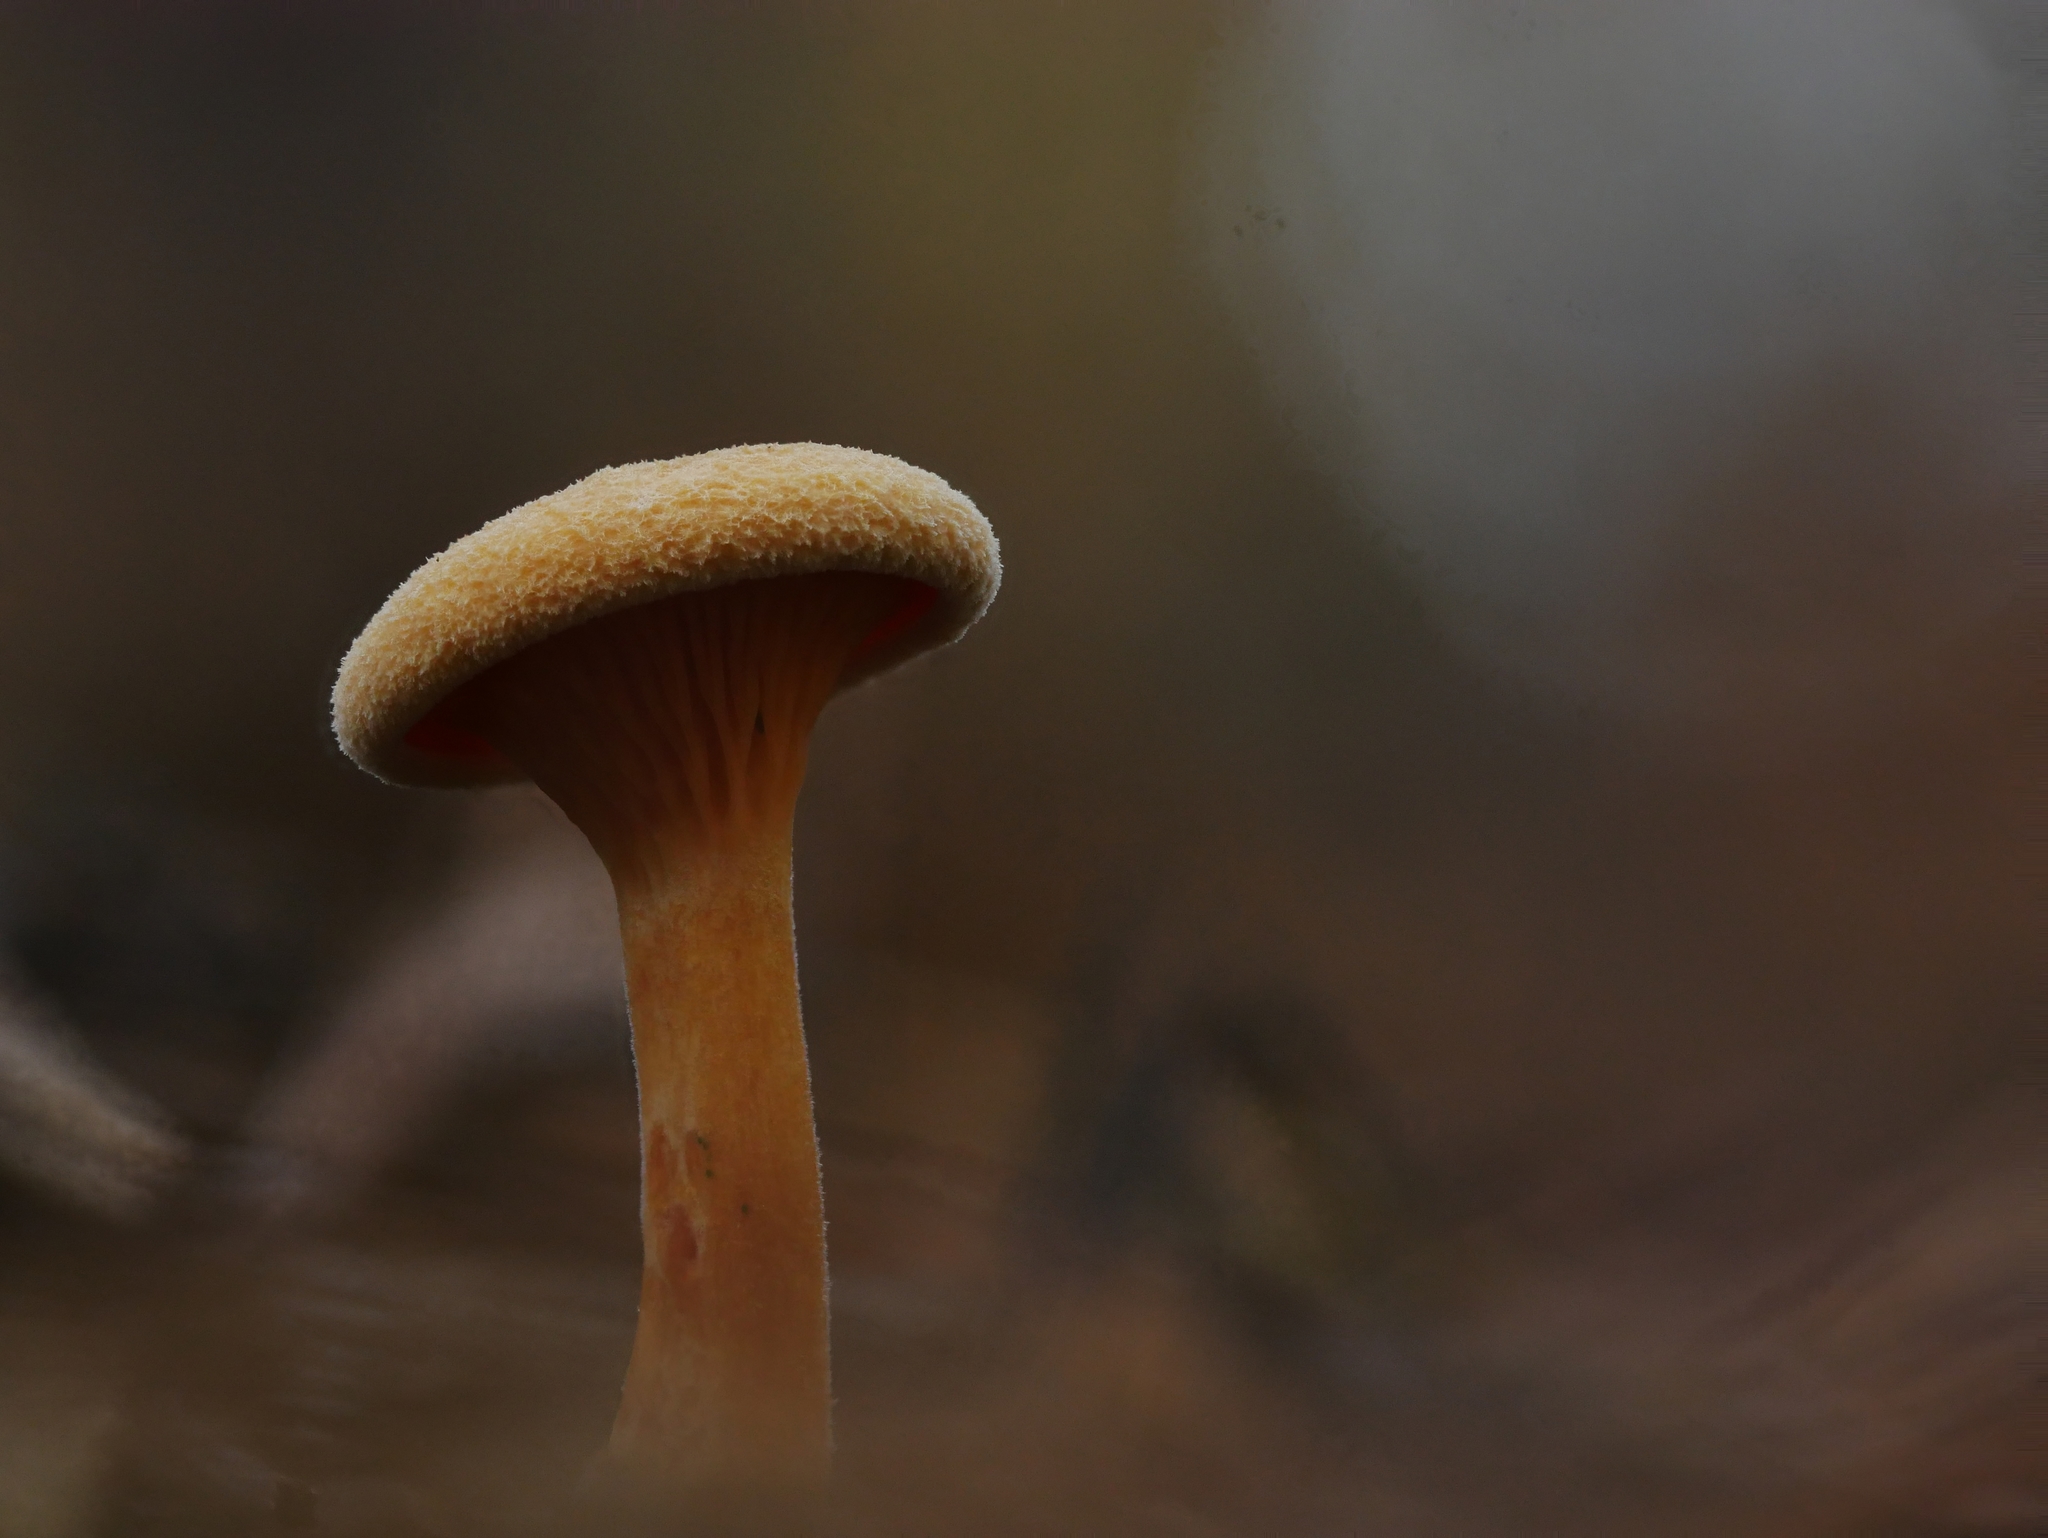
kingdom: Fungi
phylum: Basidiomycota
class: Agaricomycetes
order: Boletales
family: Hygrophoropsidaceae
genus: Hygrophoropsis
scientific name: Hygrophoropsis aurantiaca
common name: False chanterelle
